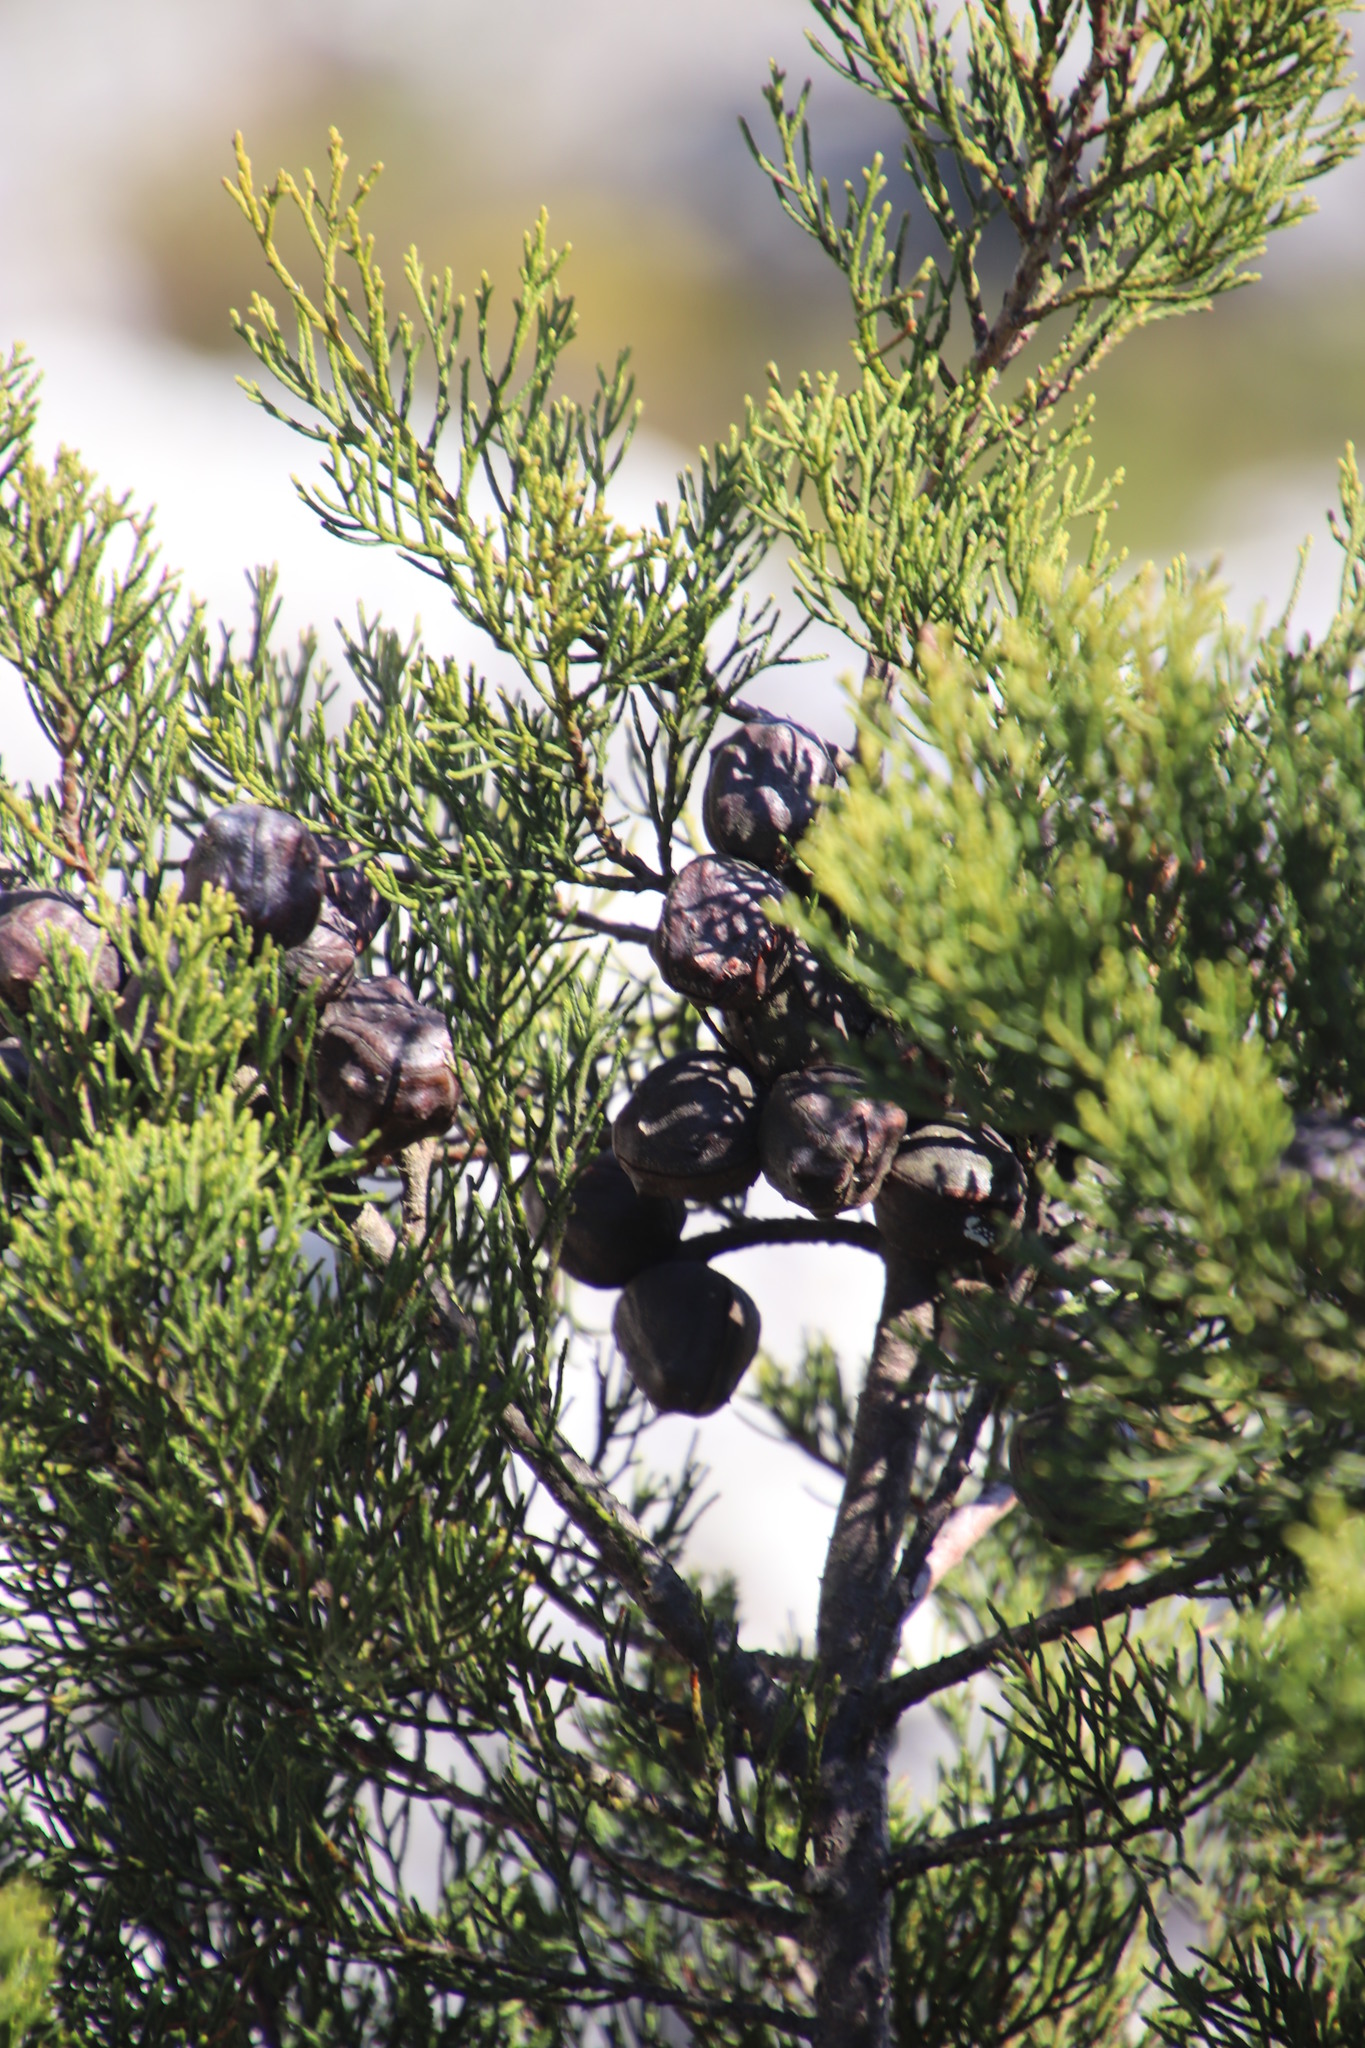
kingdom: Plantae
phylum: Tracheophyta
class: Pinopsida
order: Pinales
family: Cupressaceae
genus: Widdringtonia
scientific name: Widdringtonia nodiflora
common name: Cape cypress
